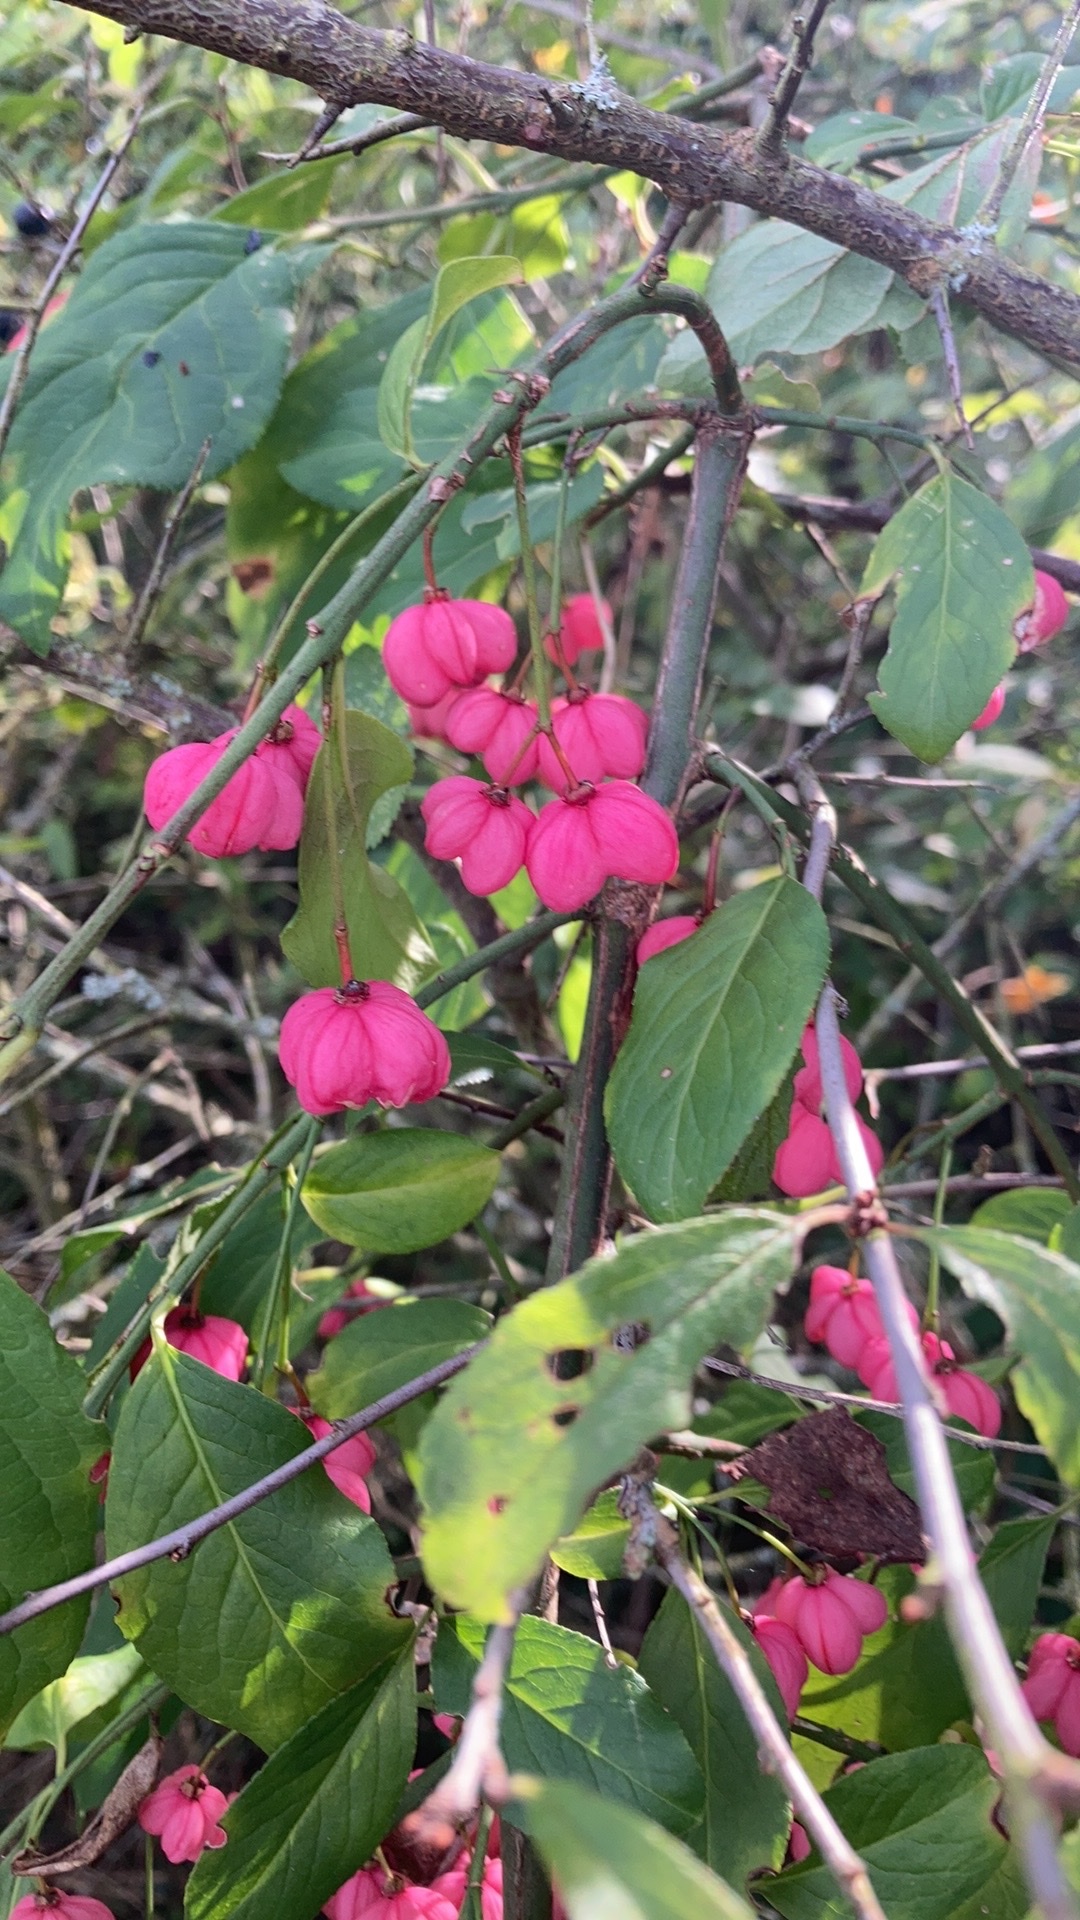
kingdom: Plantae
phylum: Tracheophyta
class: Magnoliopsida
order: Celastrales
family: Celastraceae
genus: Euonymus
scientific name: Euonymus europaeus
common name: Spindle
